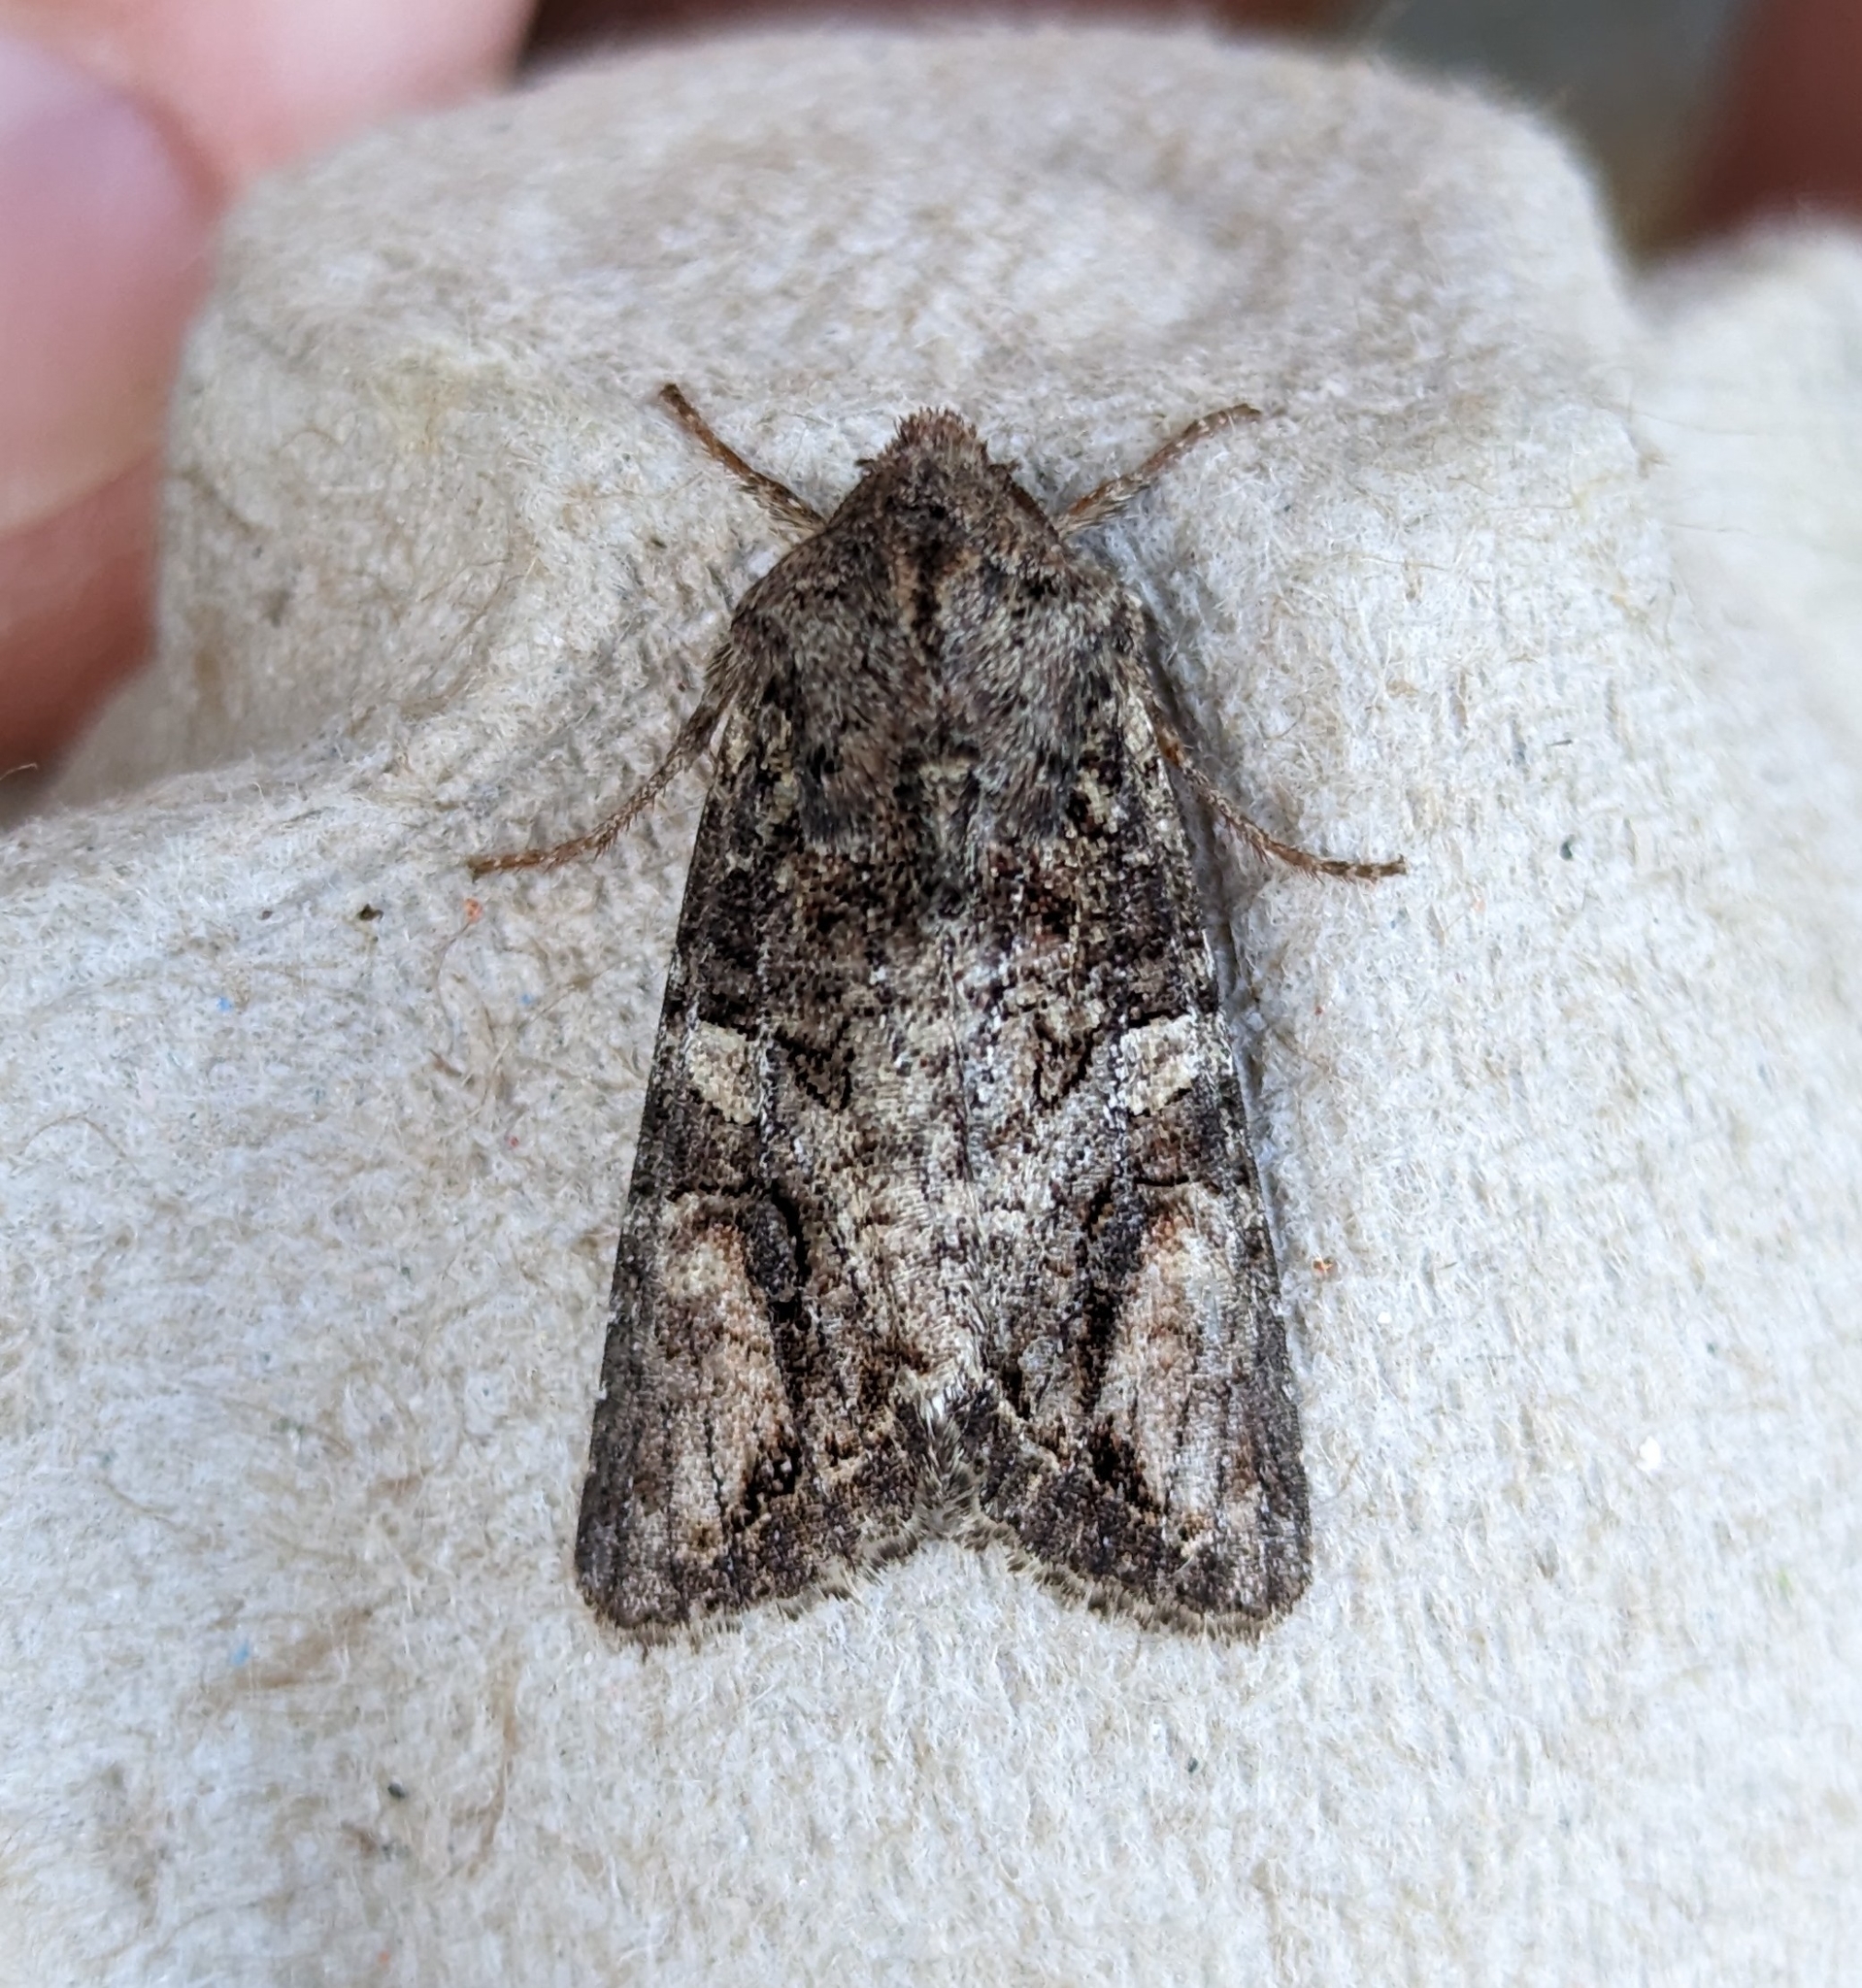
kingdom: Animalia
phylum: Arthropoda
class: Insecta
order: Lepidoptera
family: Noctuidae
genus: Egira
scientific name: Egira perlubens
